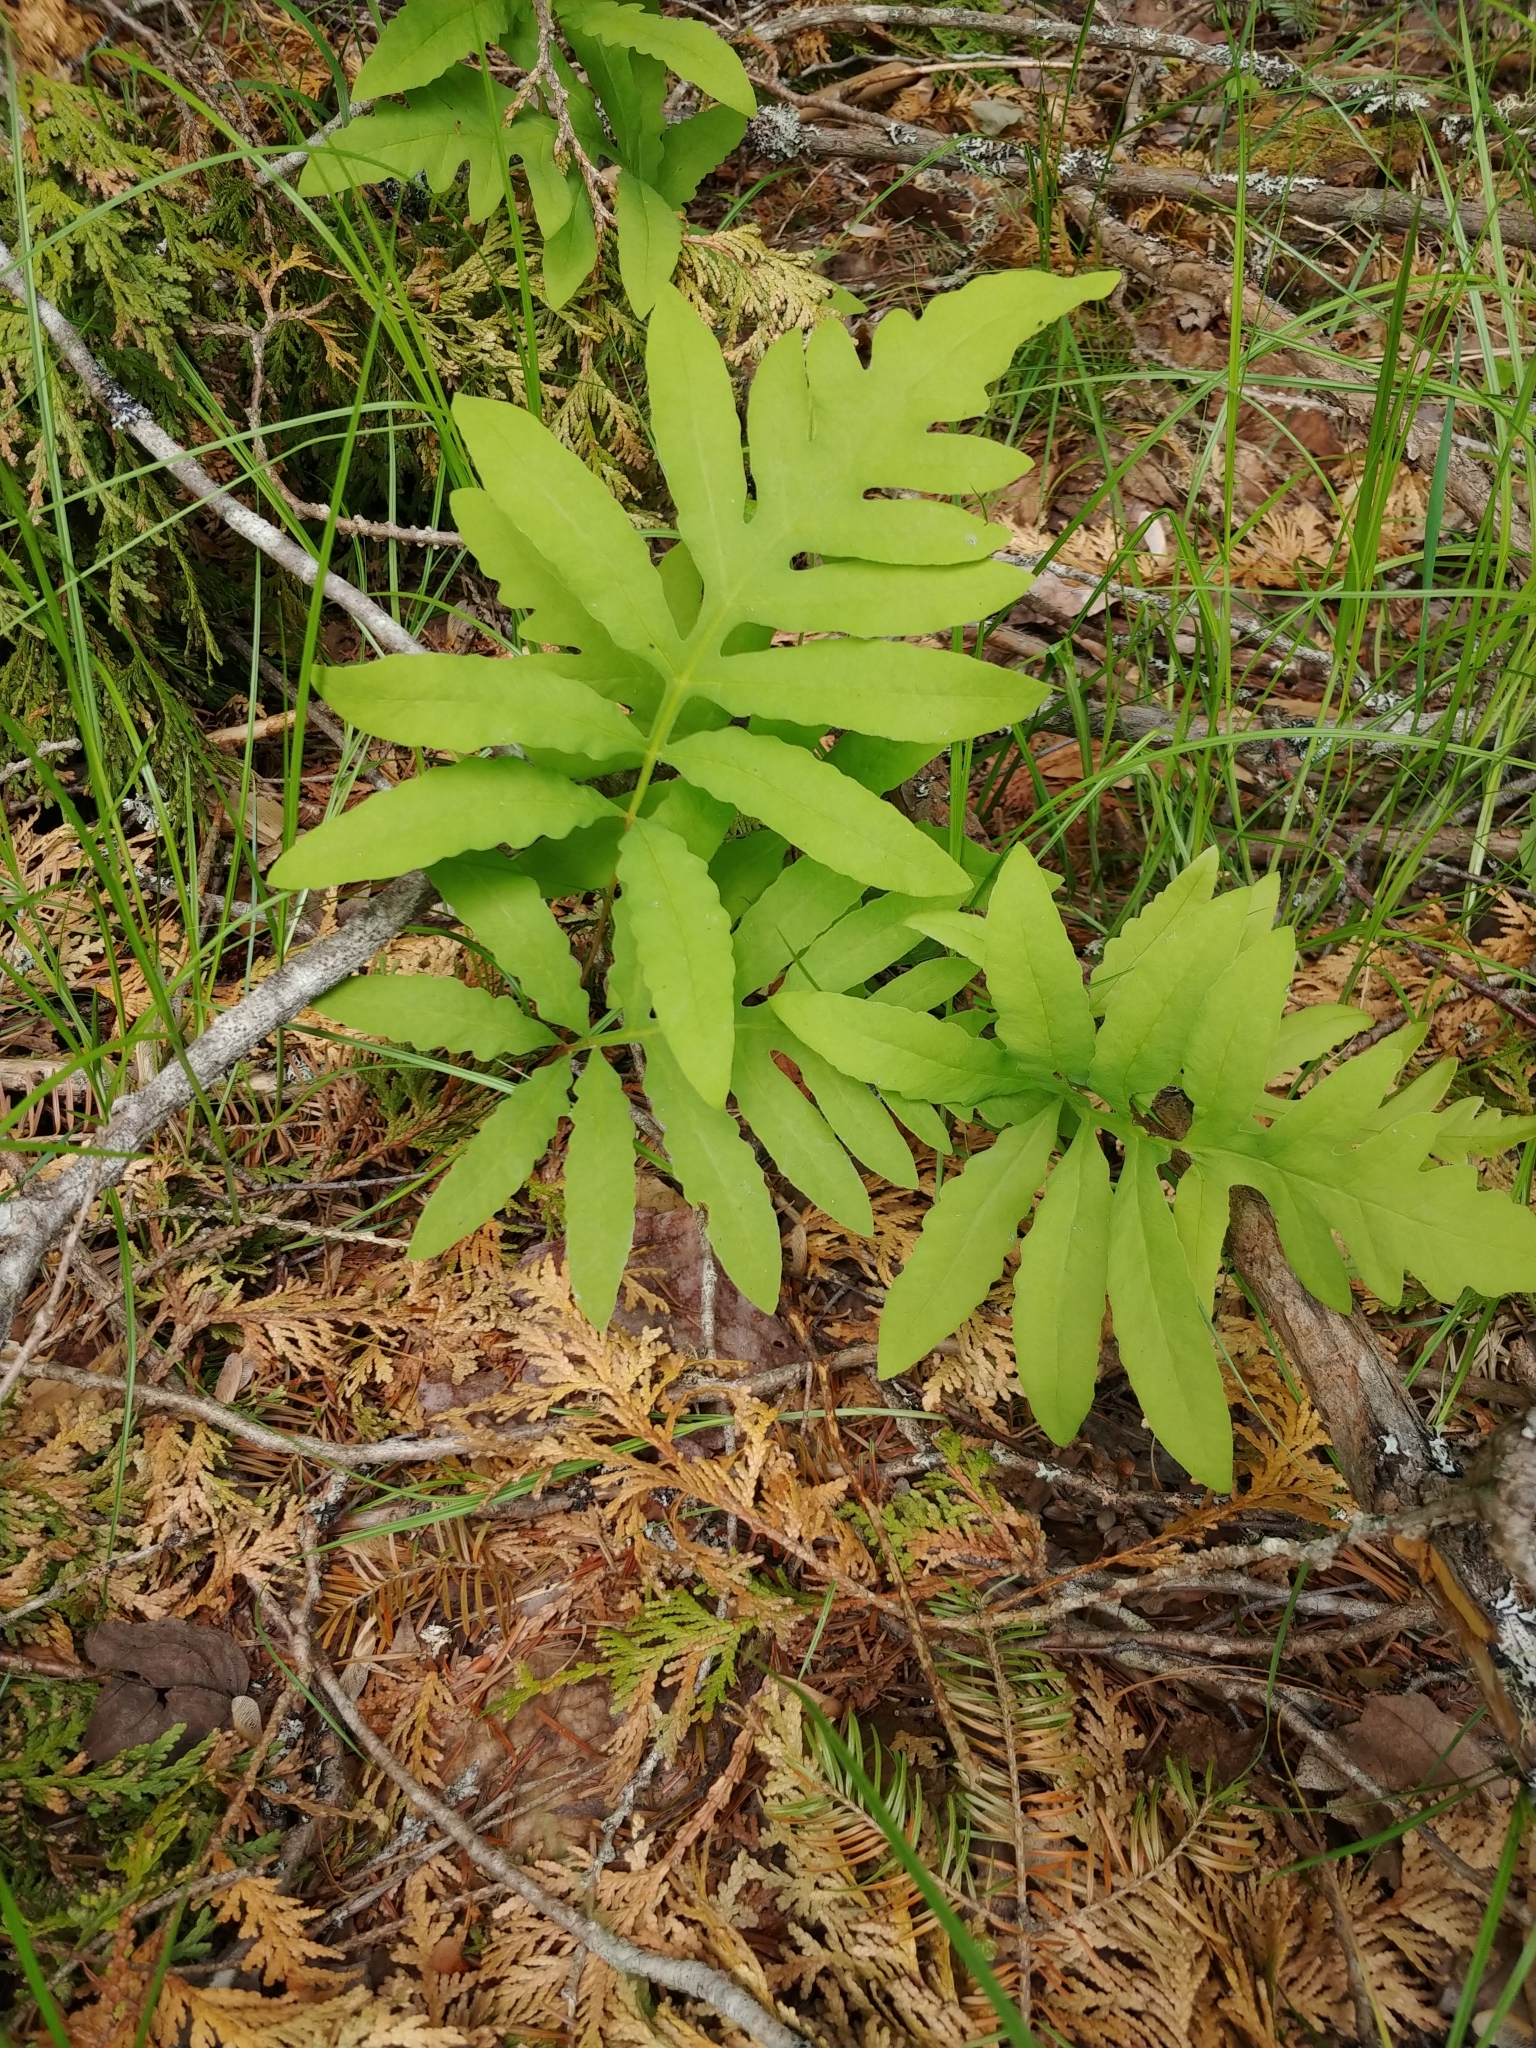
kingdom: Plantae
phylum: Tracheophyta
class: Polypodiopsida
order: Polypodiales
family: Onocleaceae
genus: Onoclea
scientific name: Onoclea sensibilis
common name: Sensitive fern
